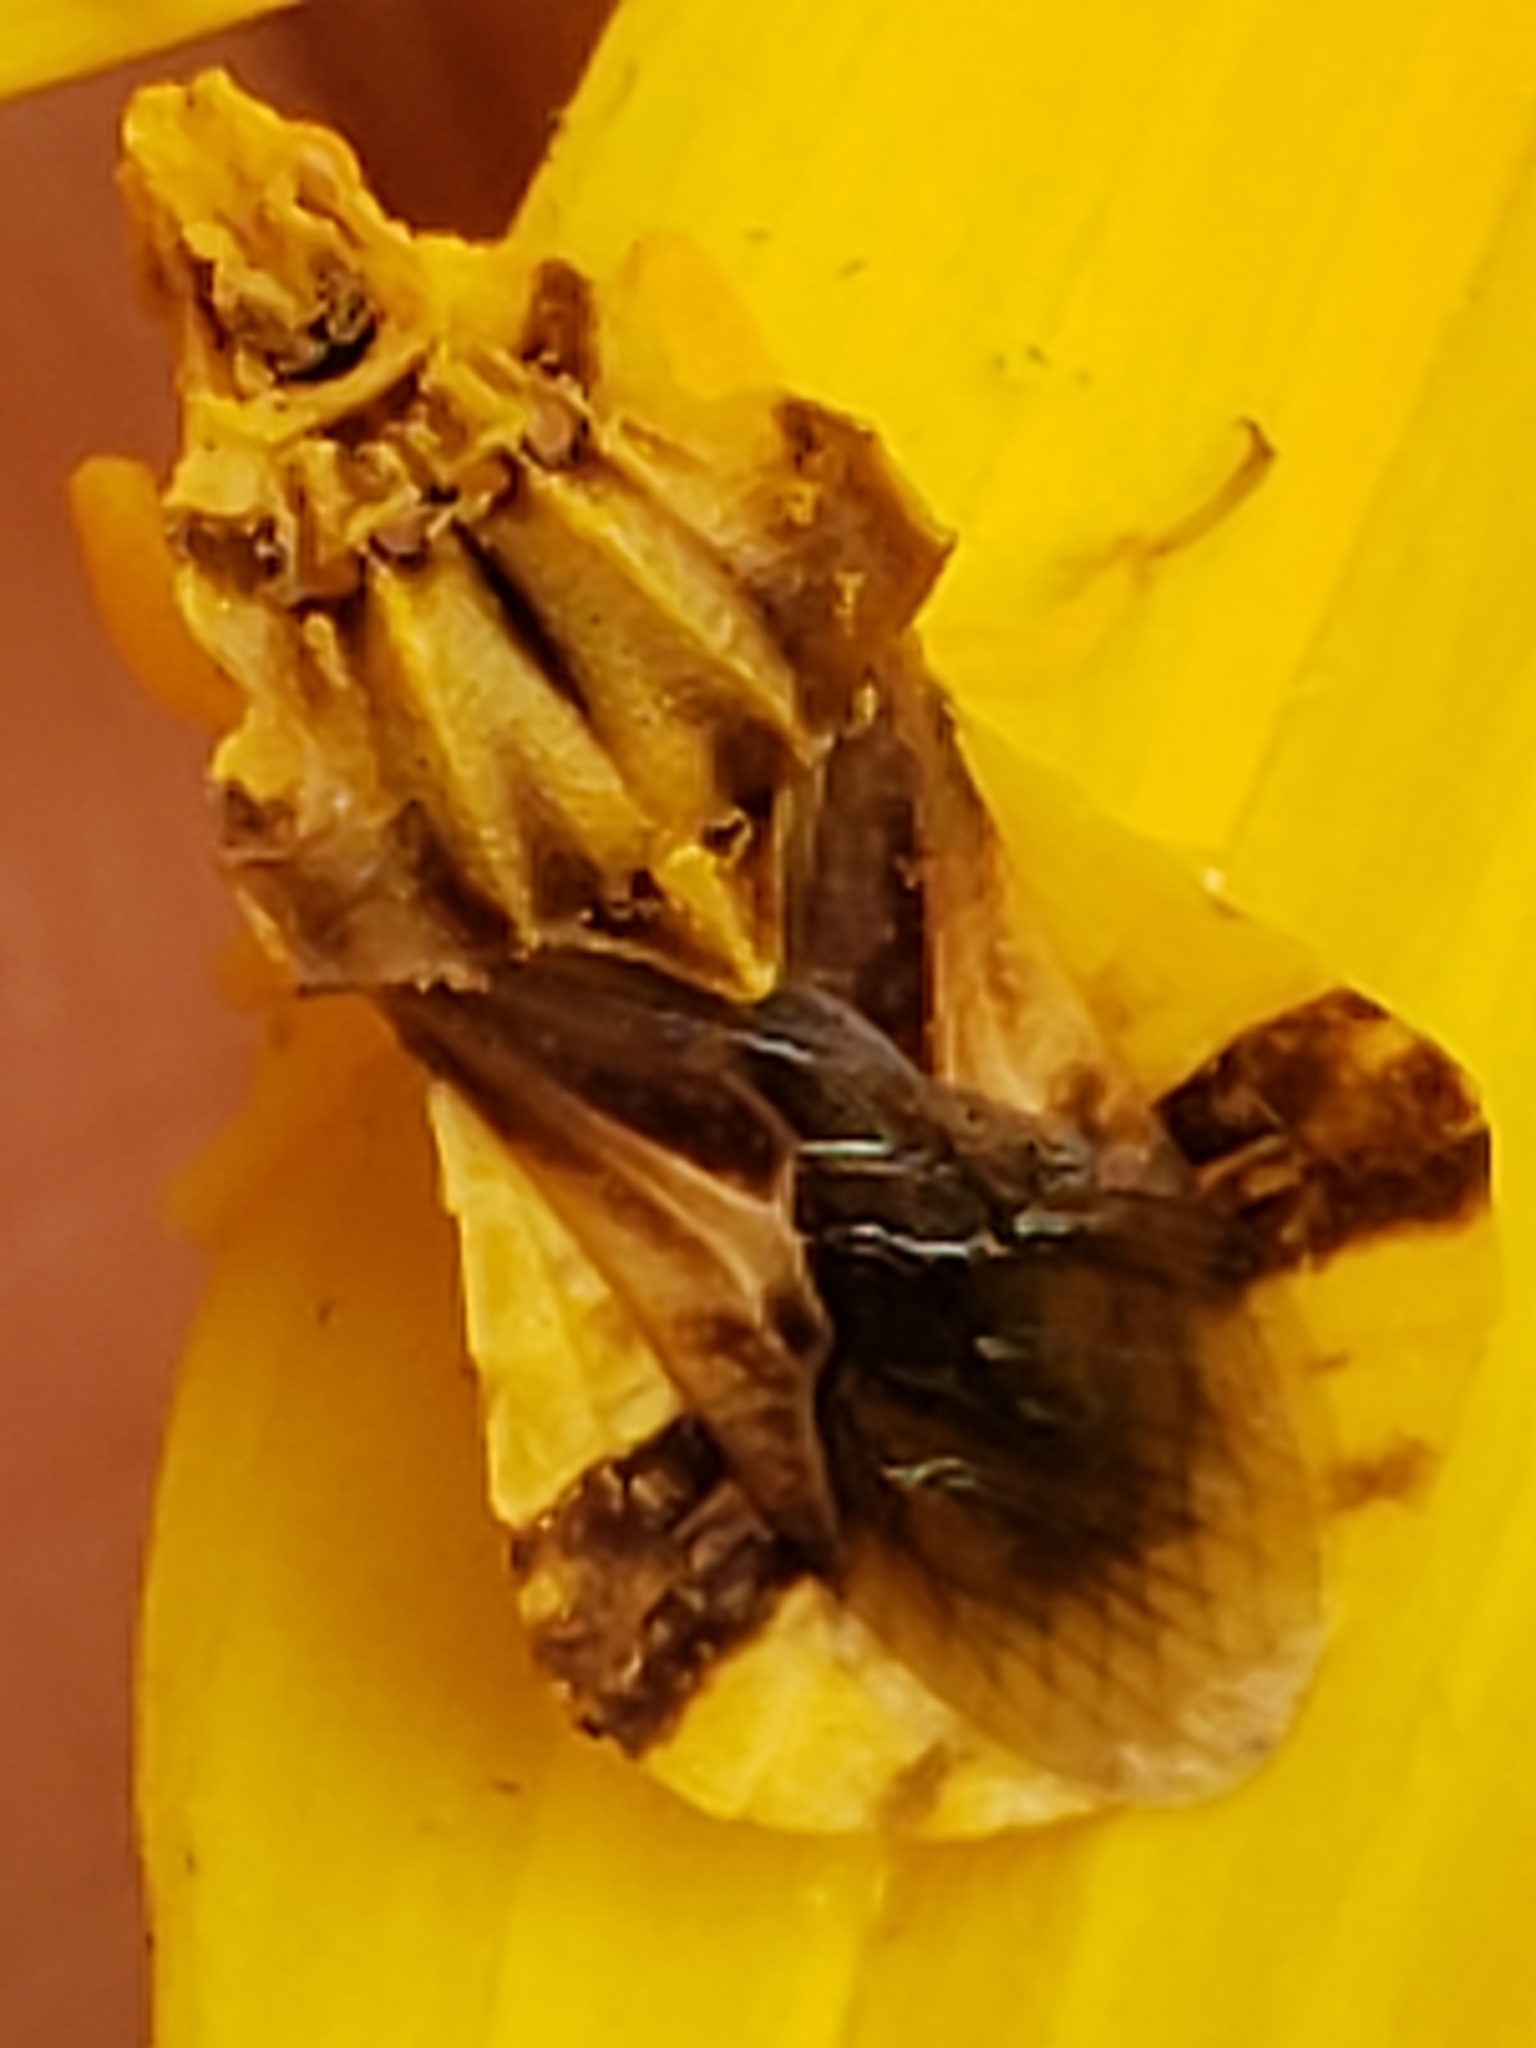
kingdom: Animalia
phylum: Arthropoda
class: Insecta
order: Hemiptera
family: Reduviidae
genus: Phymata
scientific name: Phymata fasciata
